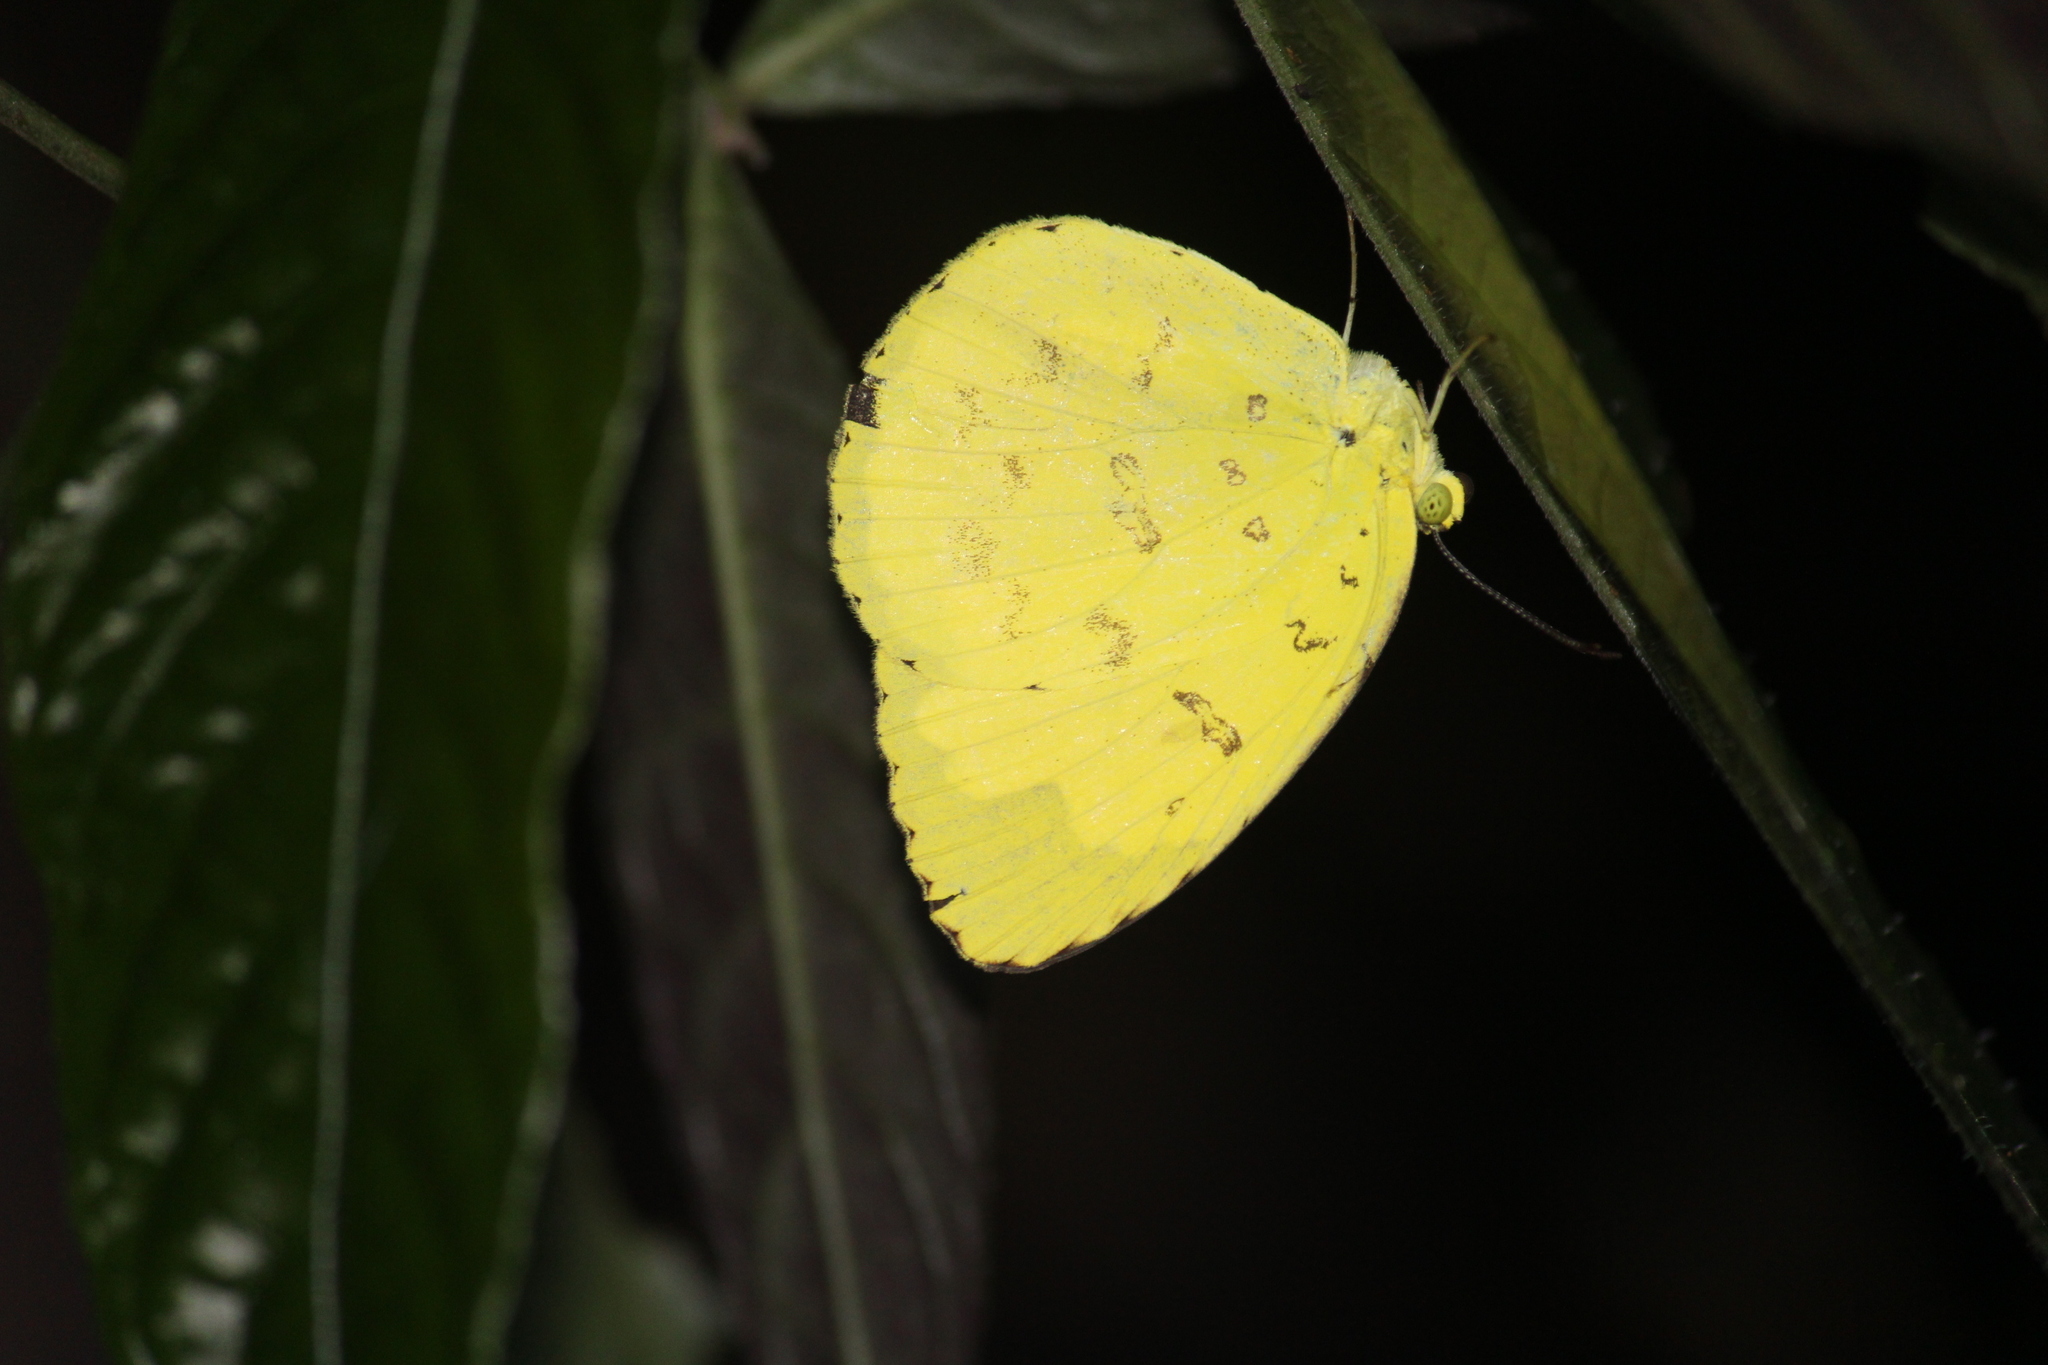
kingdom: Animalia
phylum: Arthropoda
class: Insecta
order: Lepidoptera
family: Pieridae
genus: Eurema
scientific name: Eurema blanda
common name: Three-spot grass yellow
